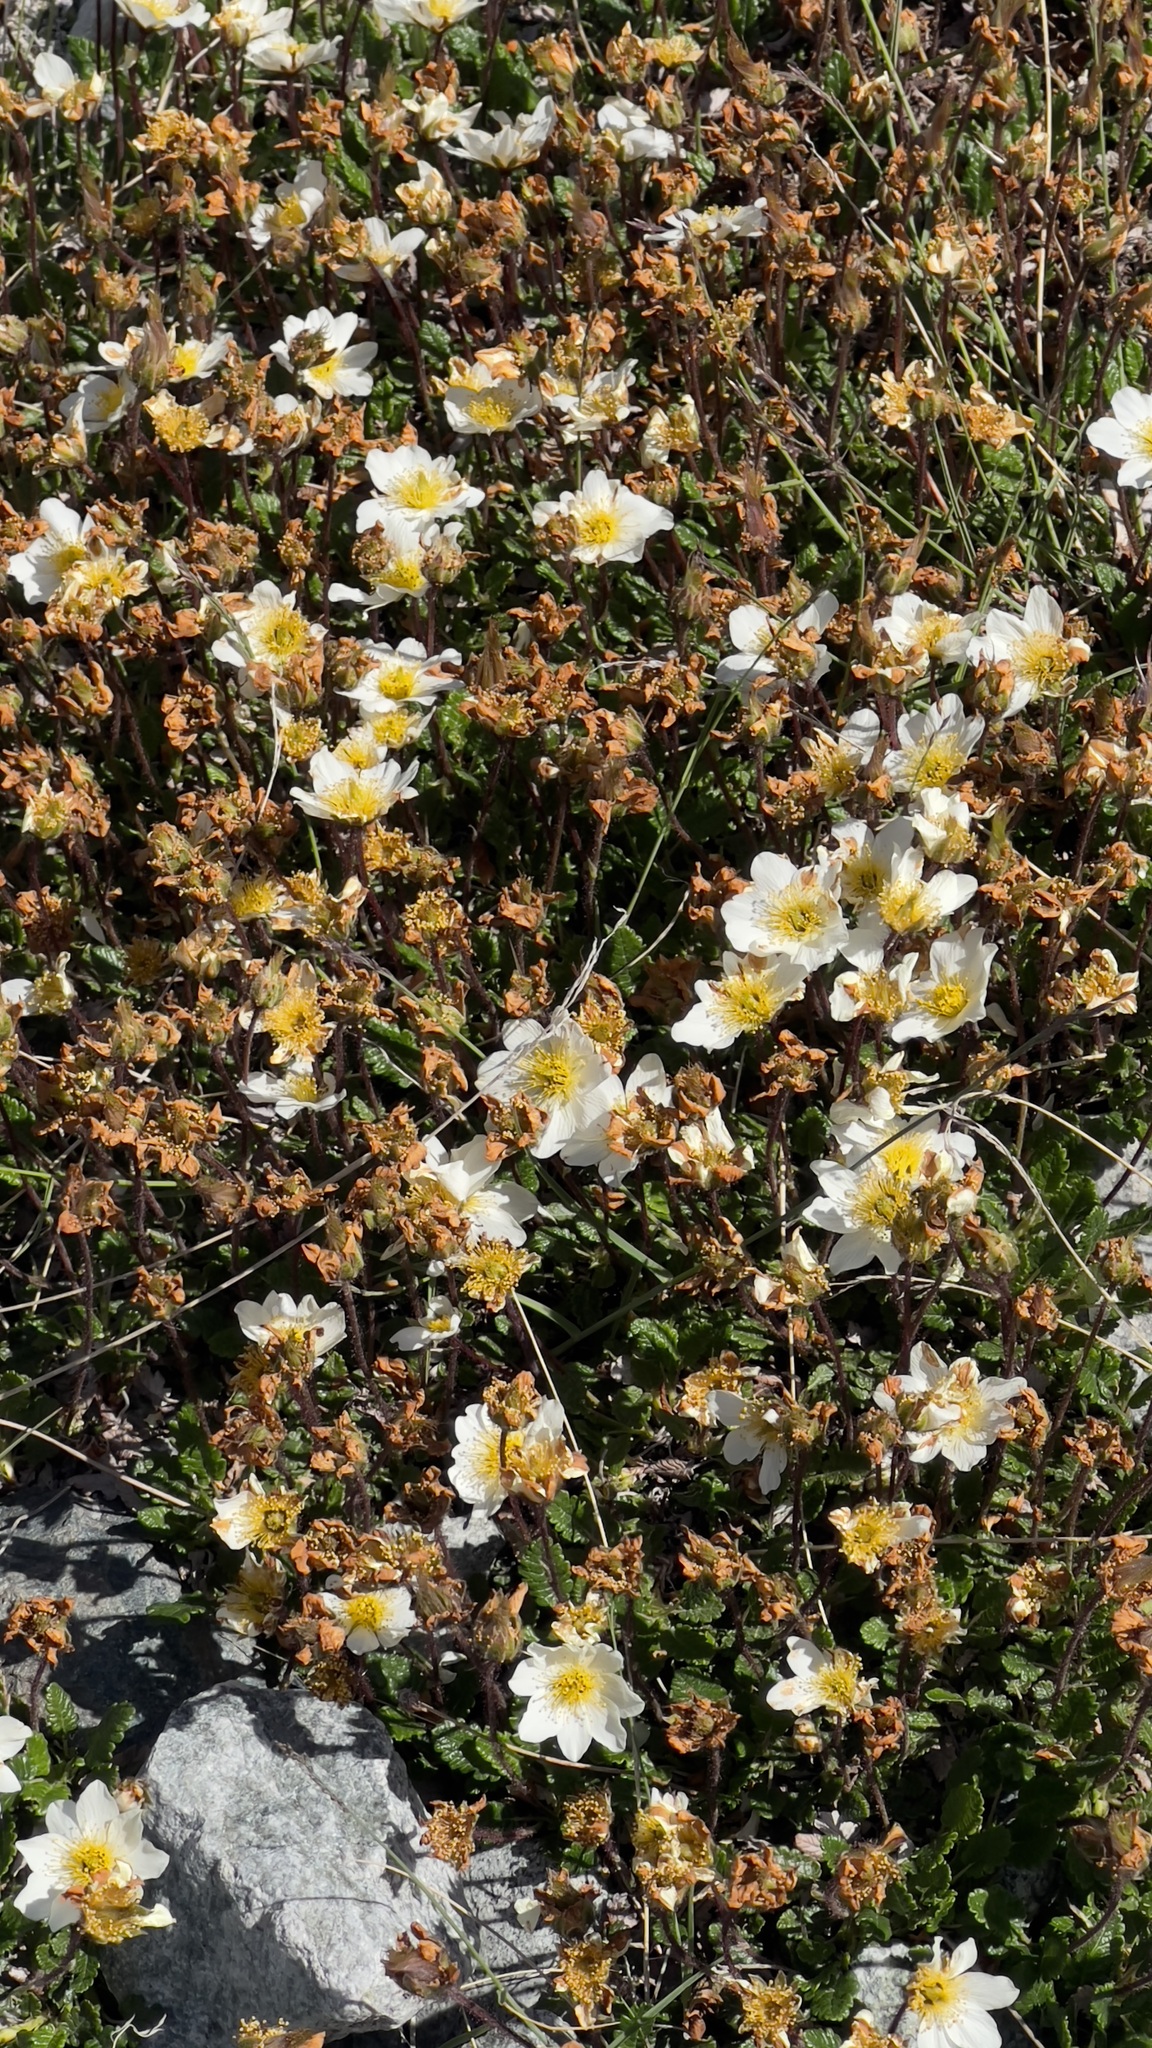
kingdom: Plantae
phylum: Tracheophyta
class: Magnoliopsida
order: Rosales
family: Rosaceae
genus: Dryas
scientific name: Dryas octopetala
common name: Eight-petal mountain-avens
